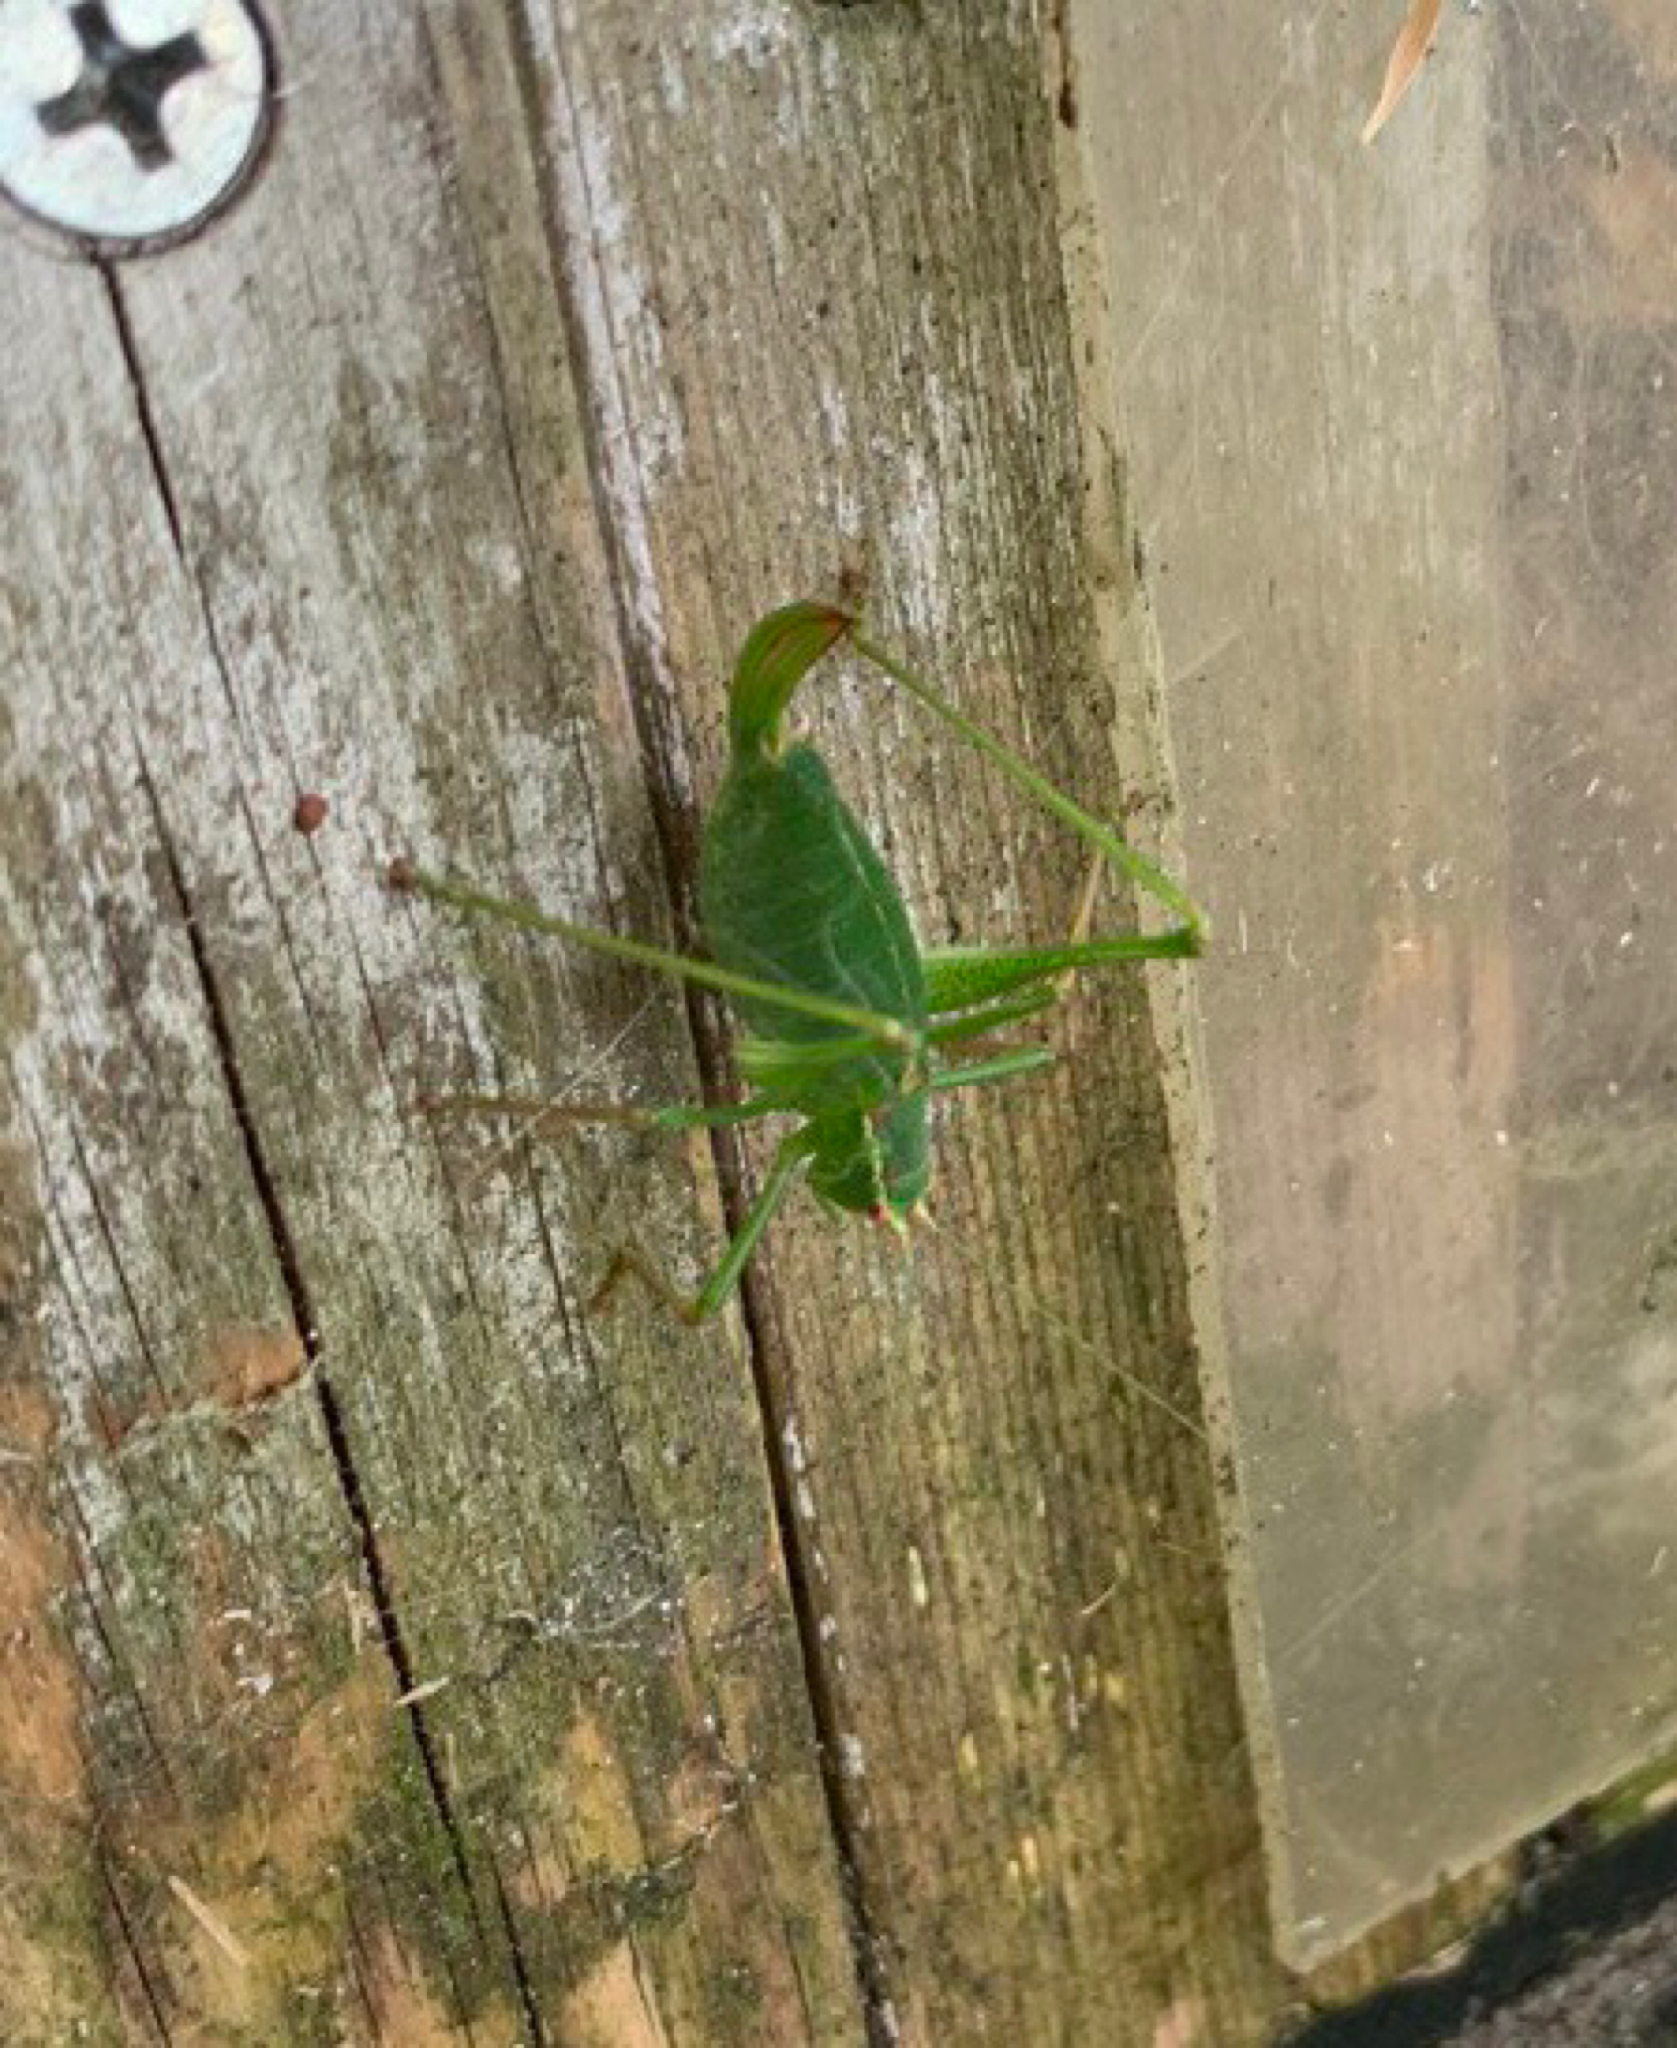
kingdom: Animalia
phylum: Arthropoda
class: Insecta
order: Orthoptera
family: Tettigoniidae
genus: Leptophyes
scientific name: Leptophyes punctatissima
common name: Speckled bush-cricket
